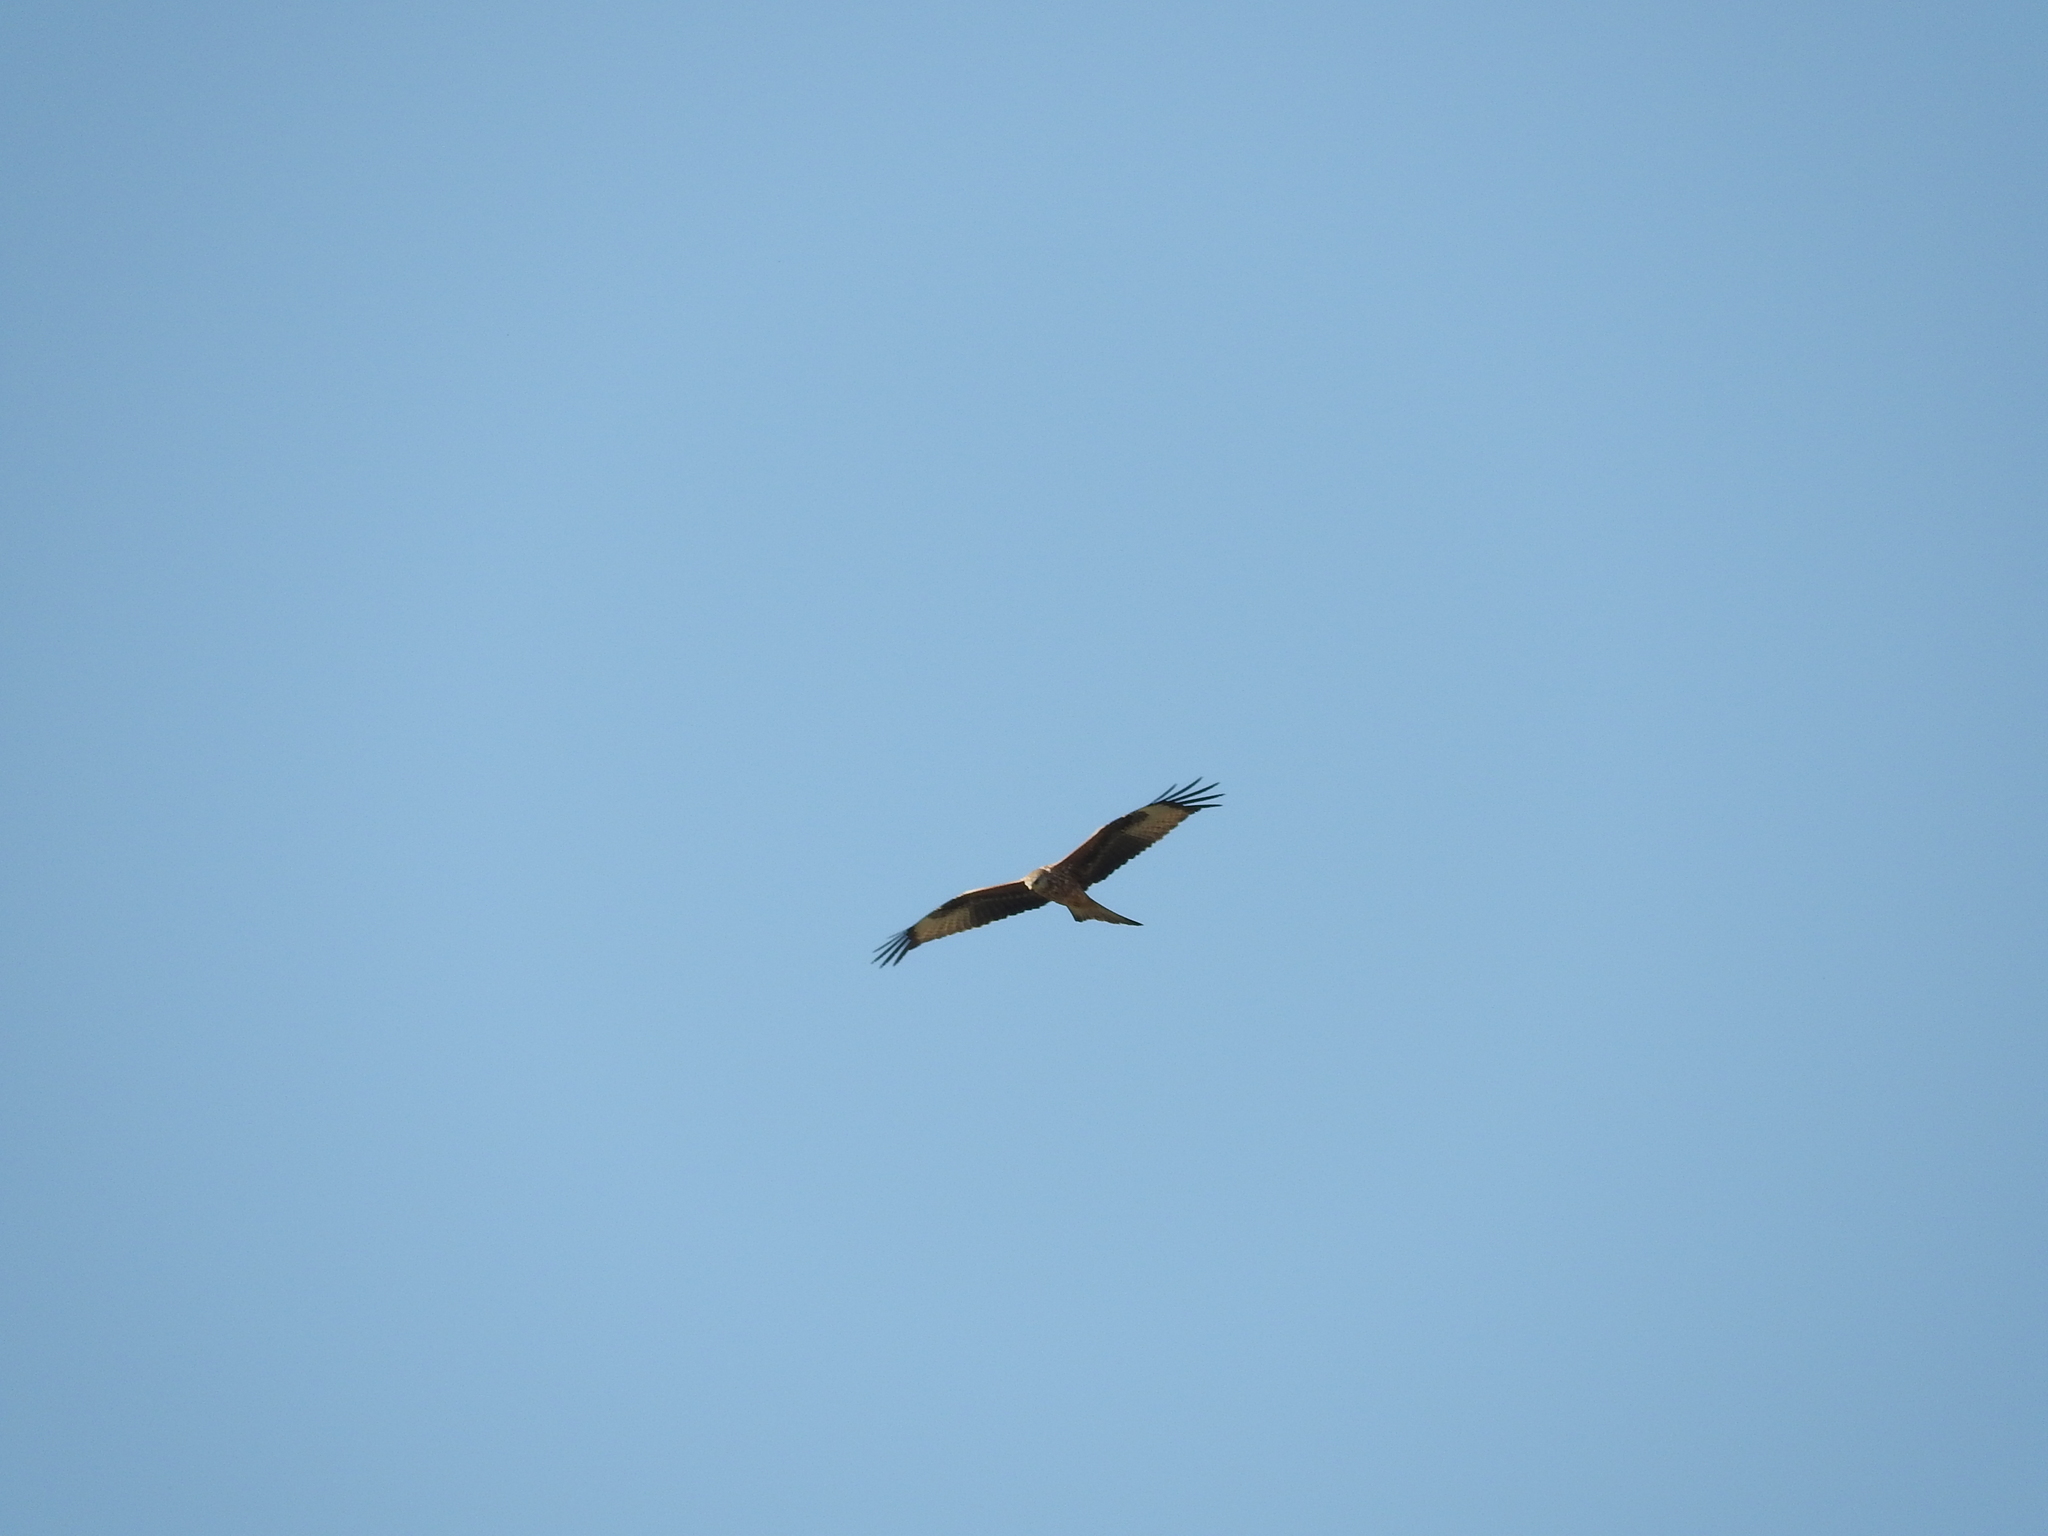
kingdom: Animalia
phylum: Chordata
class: Aves
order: Accipitriformes
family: Accipitridae
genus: Milvus
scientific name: Milvus milvus
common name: Red kite
